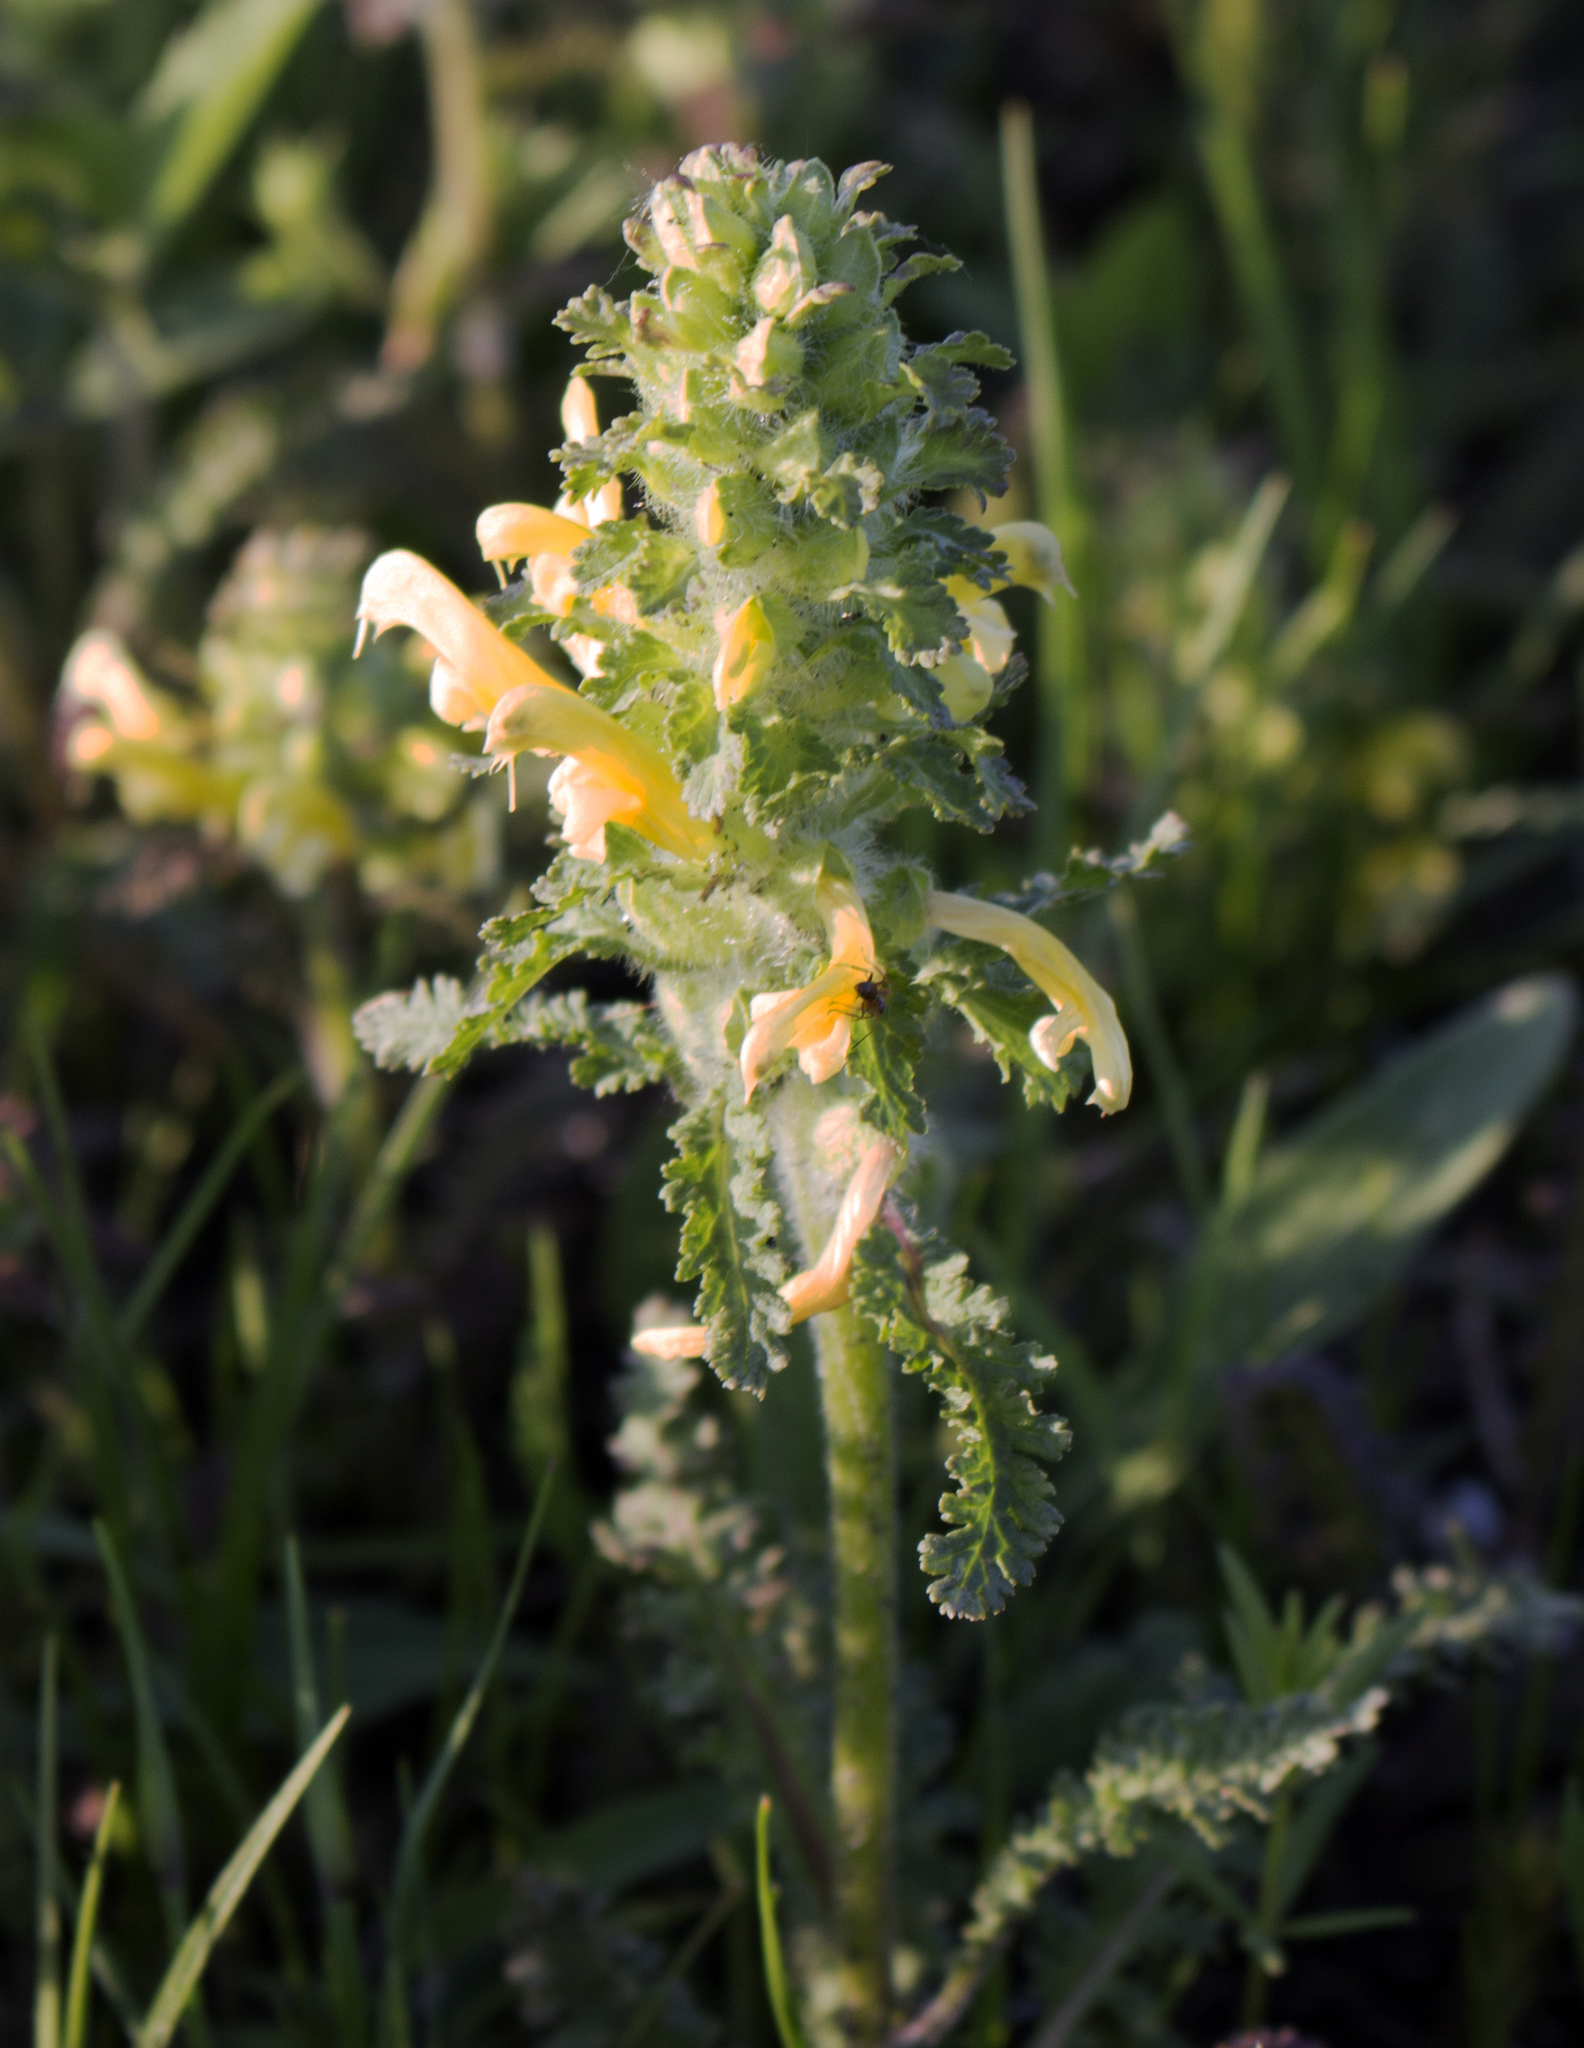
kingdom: Plantae
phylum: Tracheophyta
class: Magnoliopsida
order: Lamiales
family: Orobanchaceae
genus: Pedicularis
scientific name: Pedicularis canadensis
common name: Early lousewort
